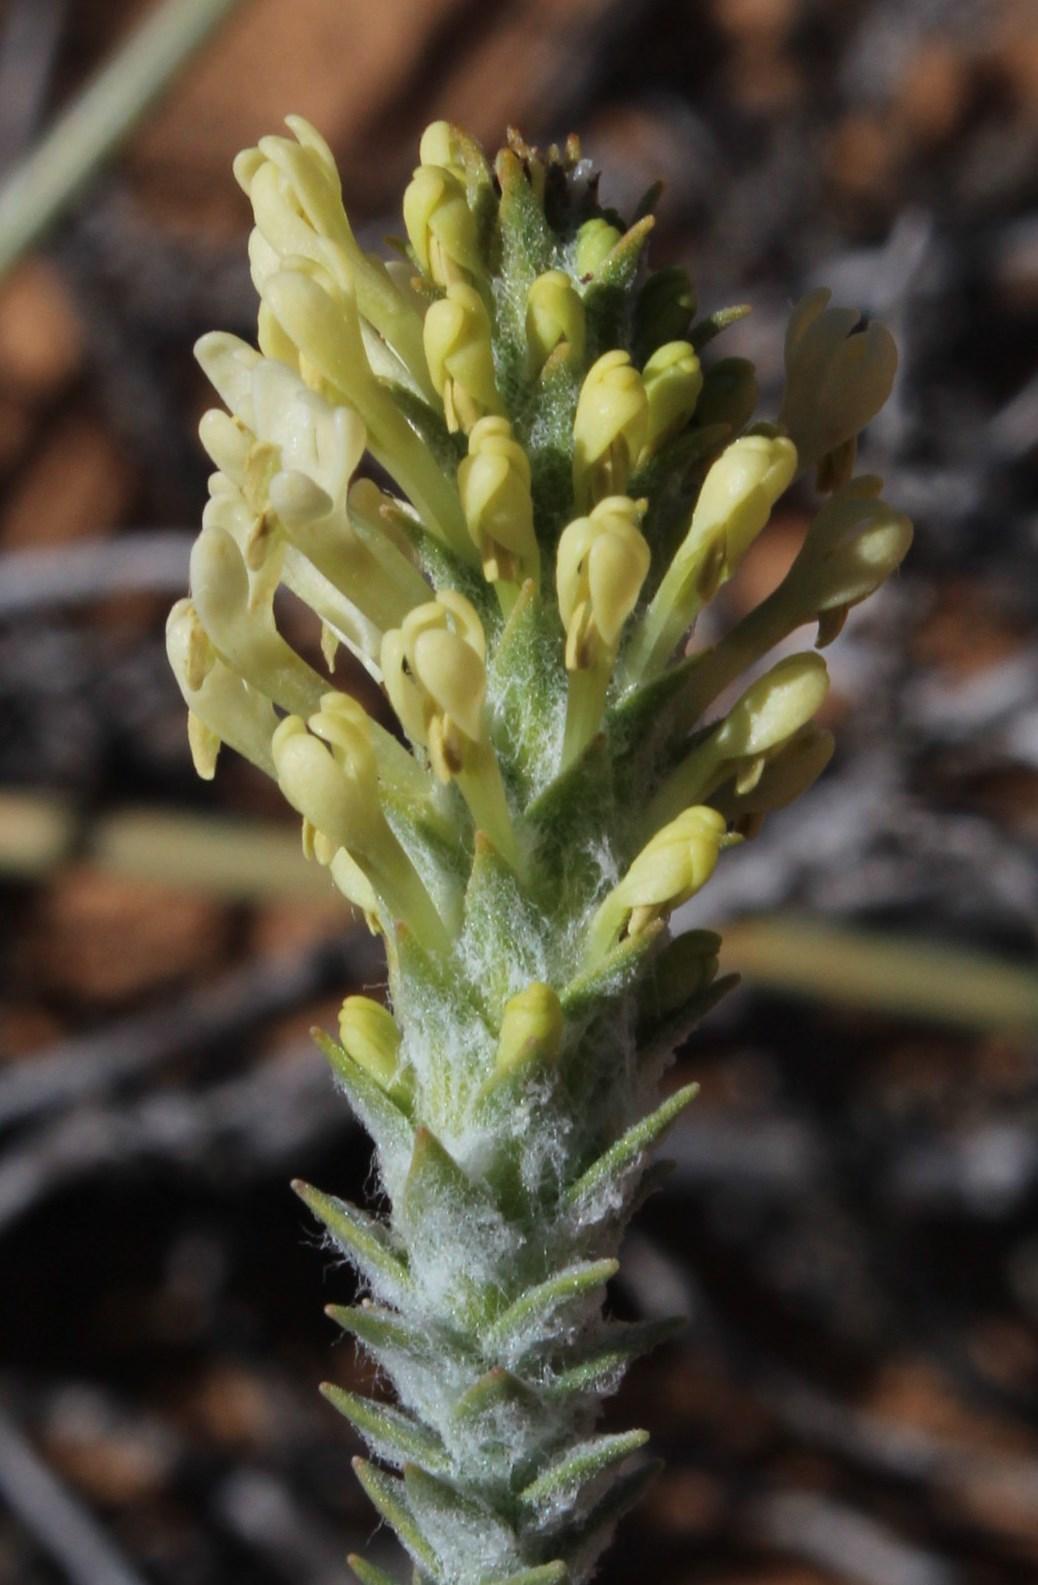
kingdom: Plantae
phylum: Tracheophyta
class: Magnoliopsida
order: Lamiales
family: Scrophulariaceae
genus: Dischisma
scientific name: Dischisma leptostachyum
